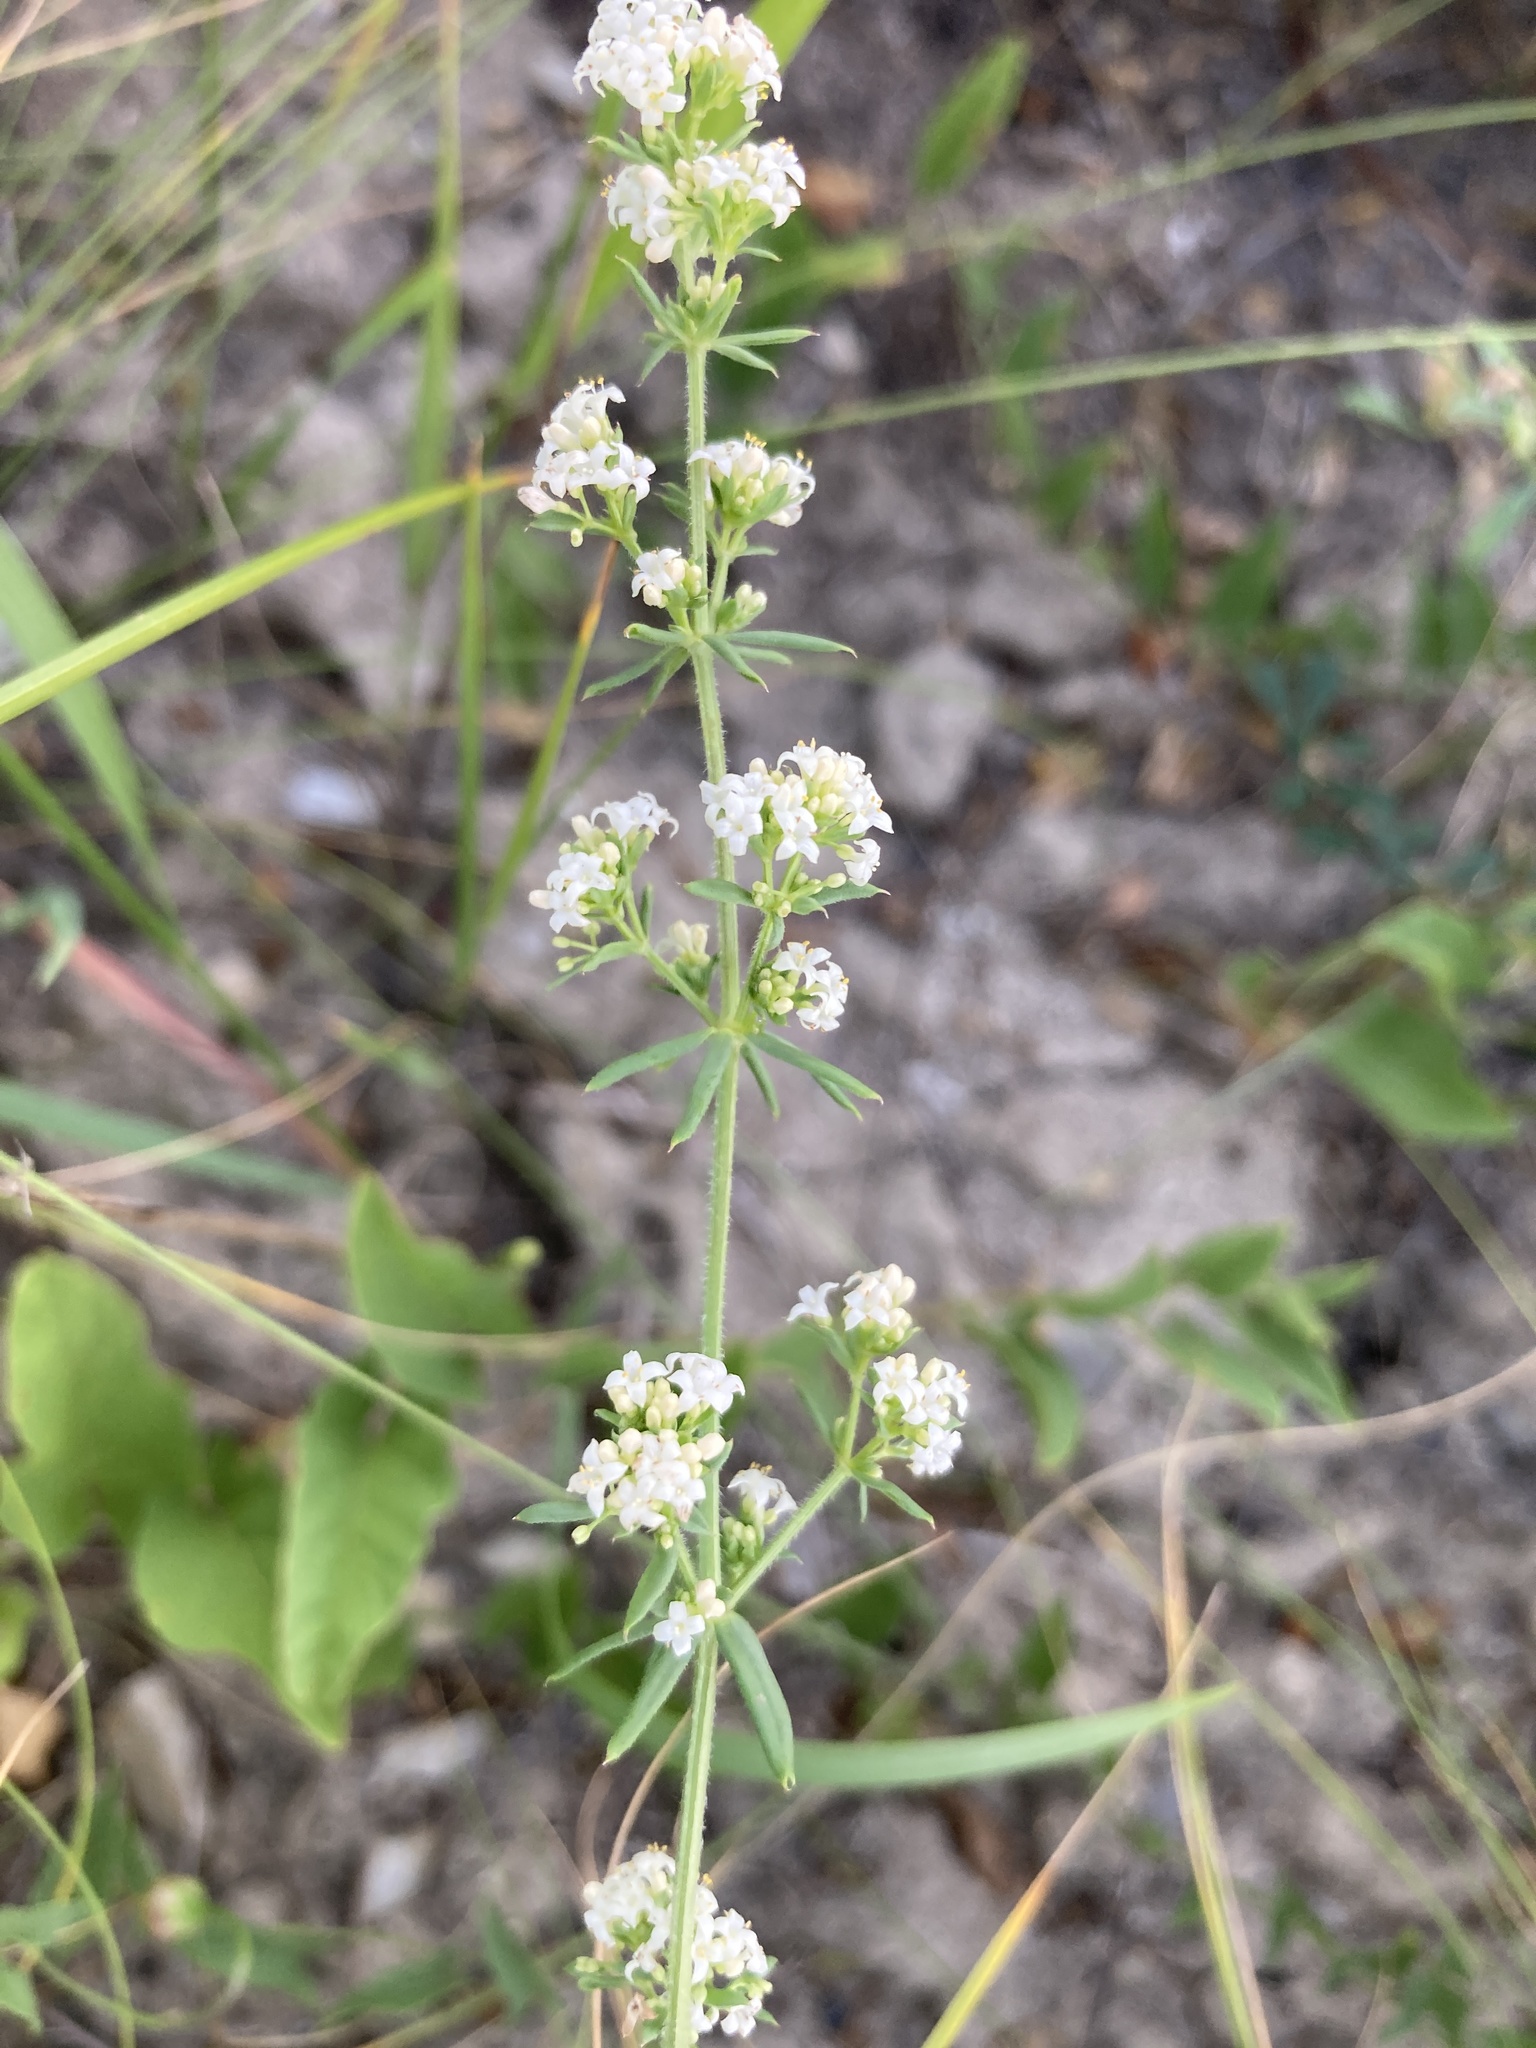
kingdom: Plantae
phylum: Tracheophyta
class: Magnoliopsida
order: Gentianales
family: Rubiaceae
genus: Galium
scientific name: Galium humifusum
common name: Spreading bedstraw
